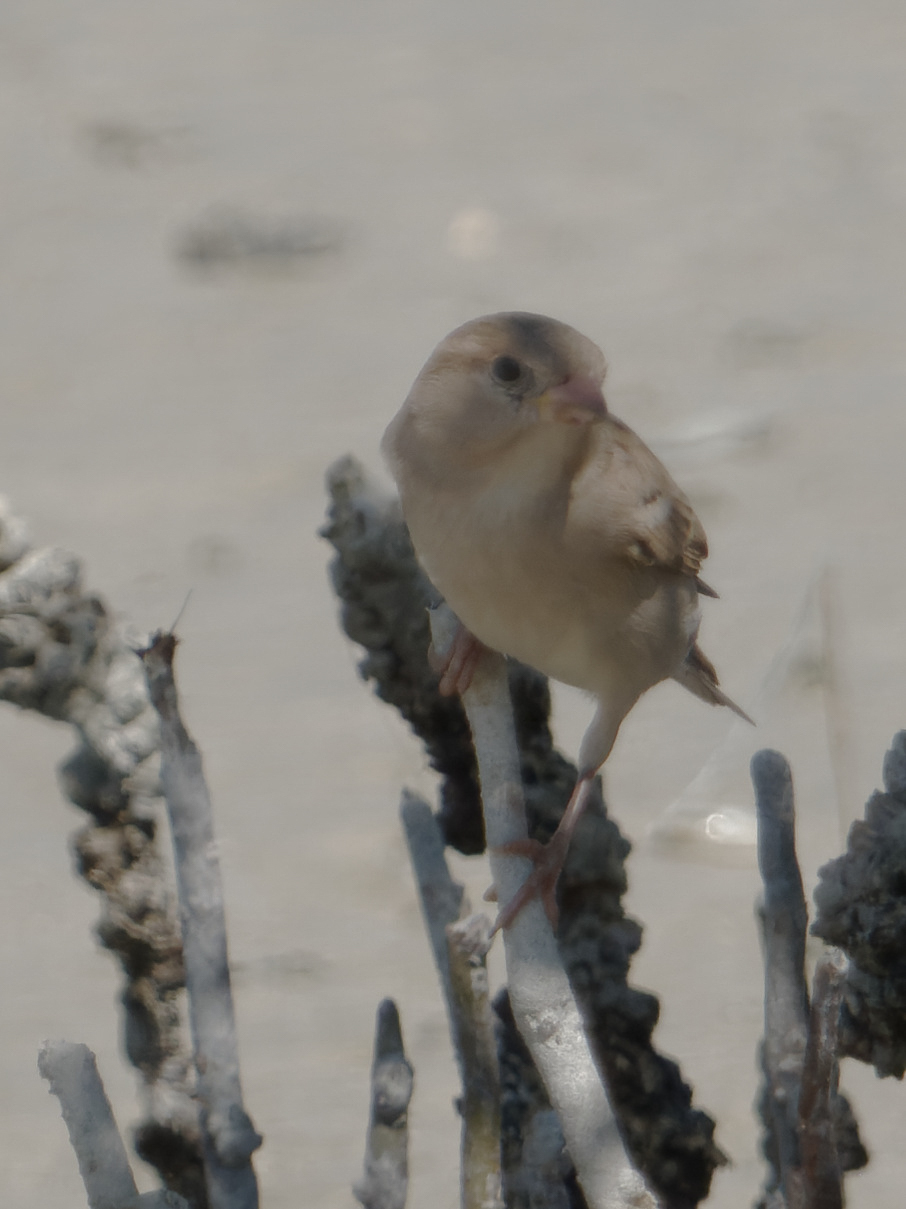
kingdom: Animalia
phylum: Chordata
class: Aves
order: Passeriformes
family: Passeridae
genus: Passer
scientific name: Passer domesticus
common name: House sparrow
